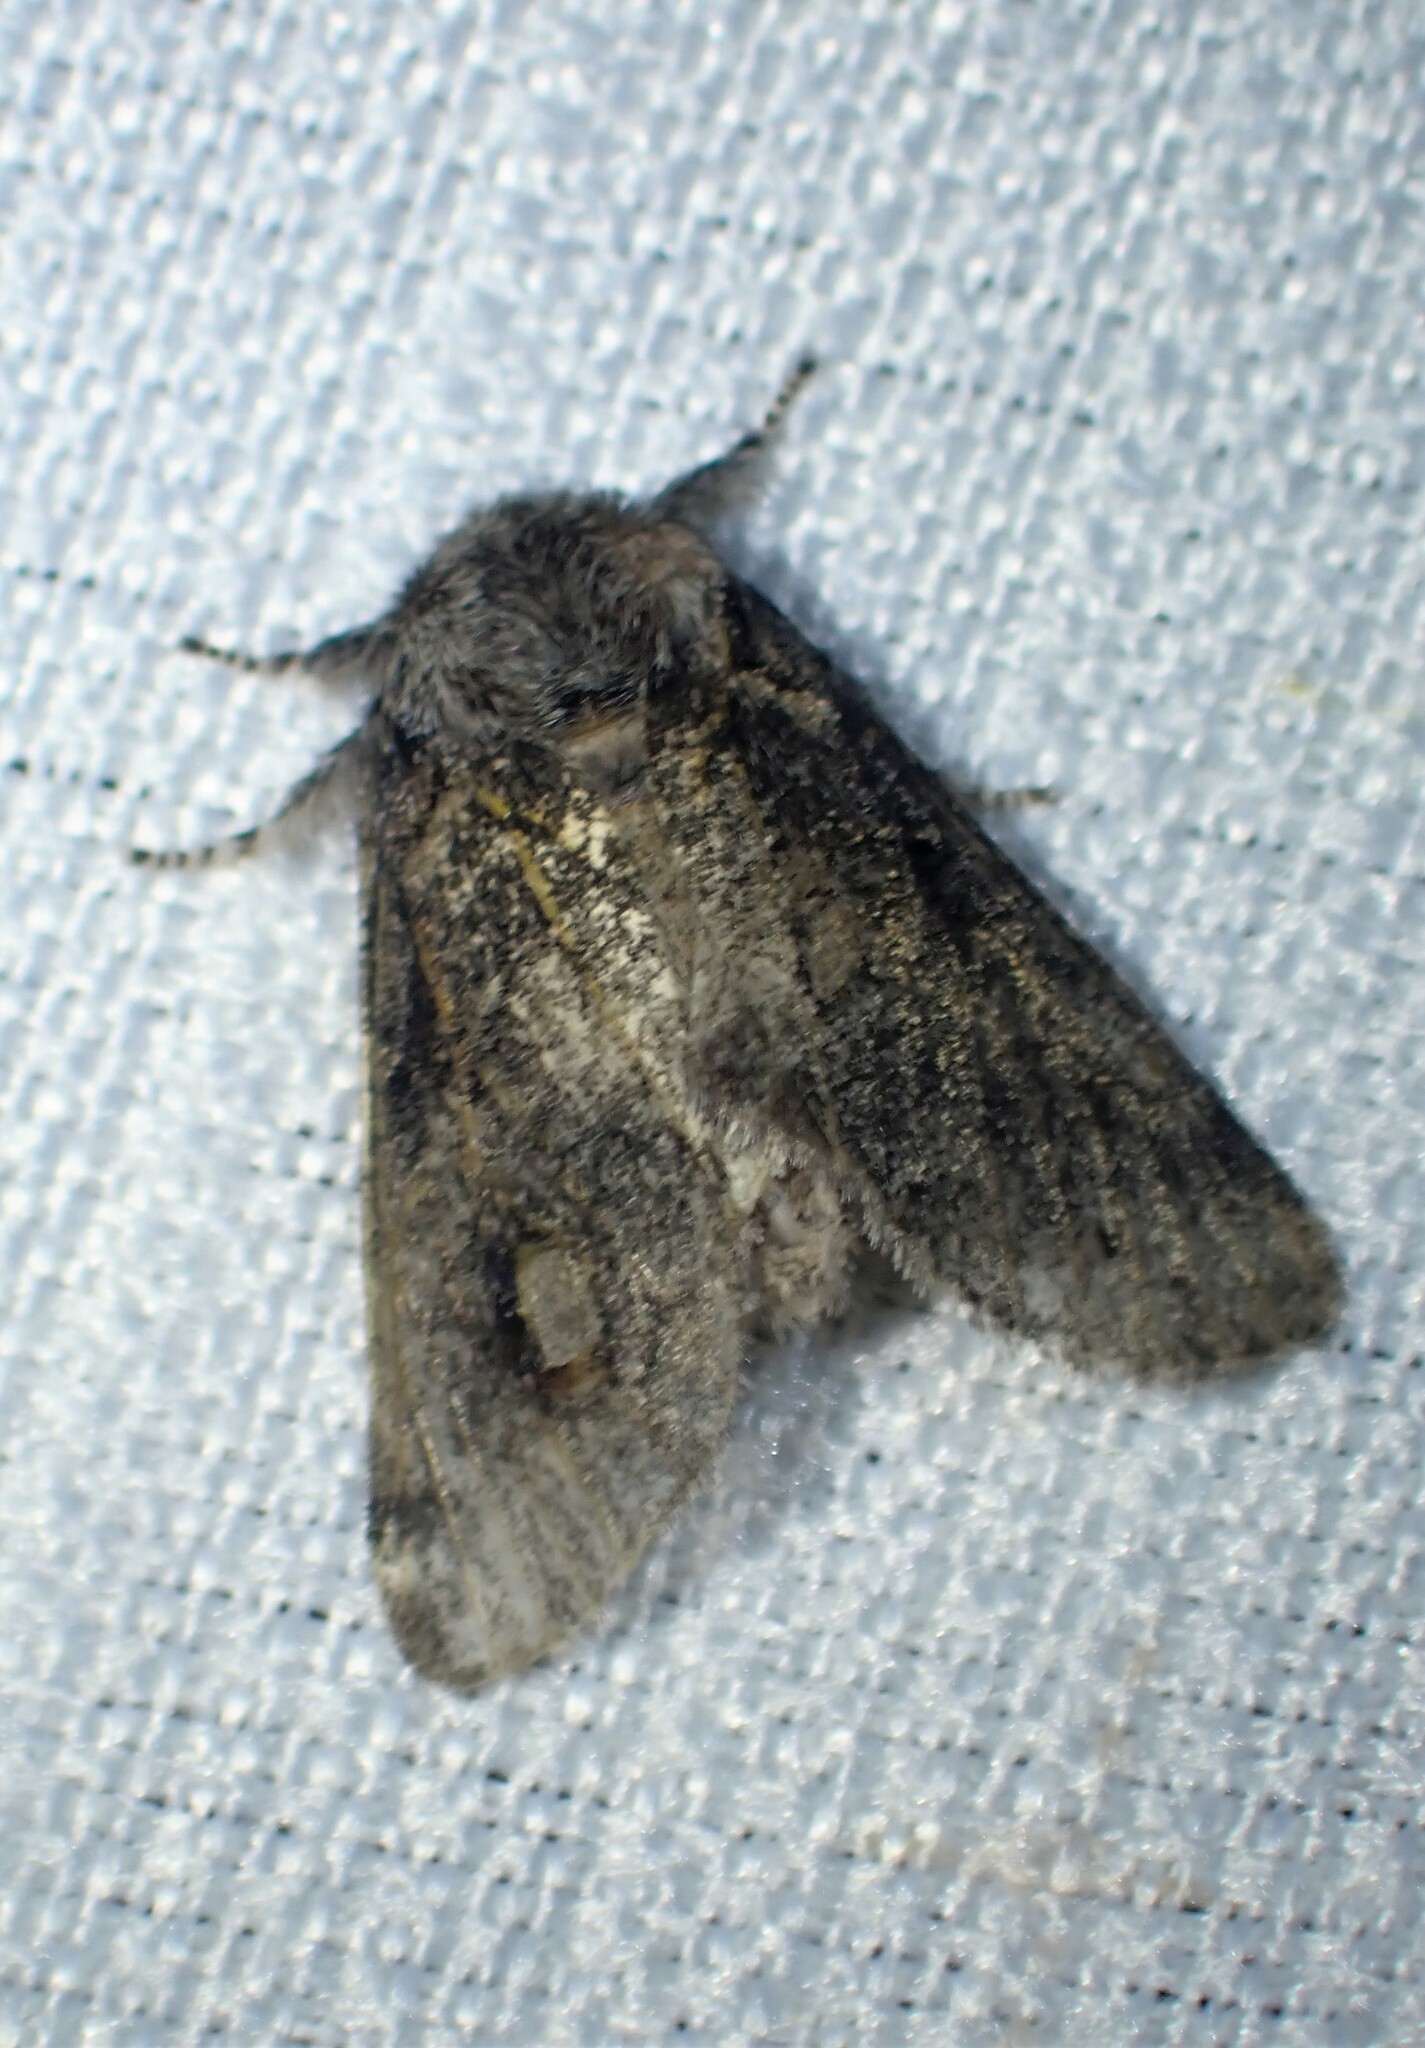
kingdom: Animalia
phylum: Arthropoda
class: Insecta
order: Lepidoptera
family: Notodontidae
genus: Gluphisia
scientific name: Gluphisia septentrionis
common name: Common gluphisia
